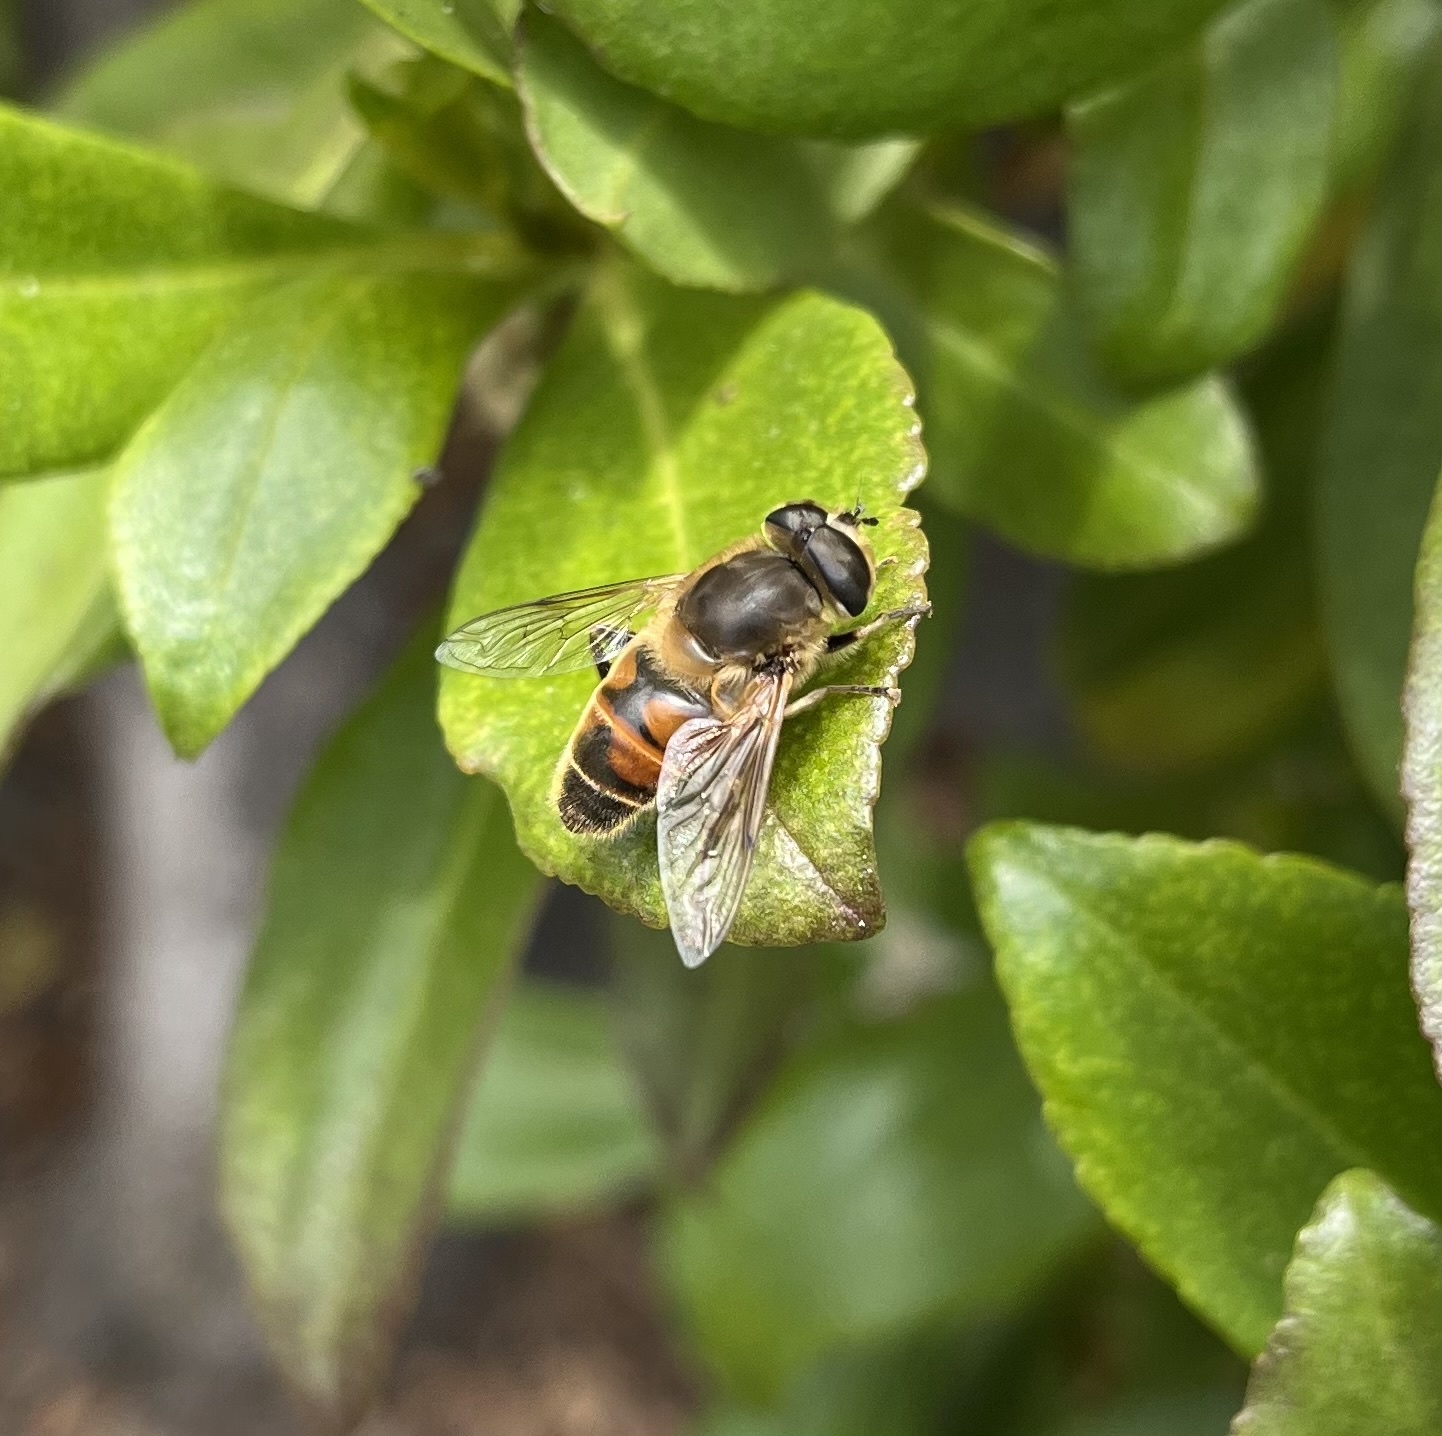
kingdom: Animalia
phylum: Arthropoda
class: Insecta
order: Diptera
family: Syrphidae
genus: Eristalis
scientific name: Eristalis tenax
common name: Drone fly
